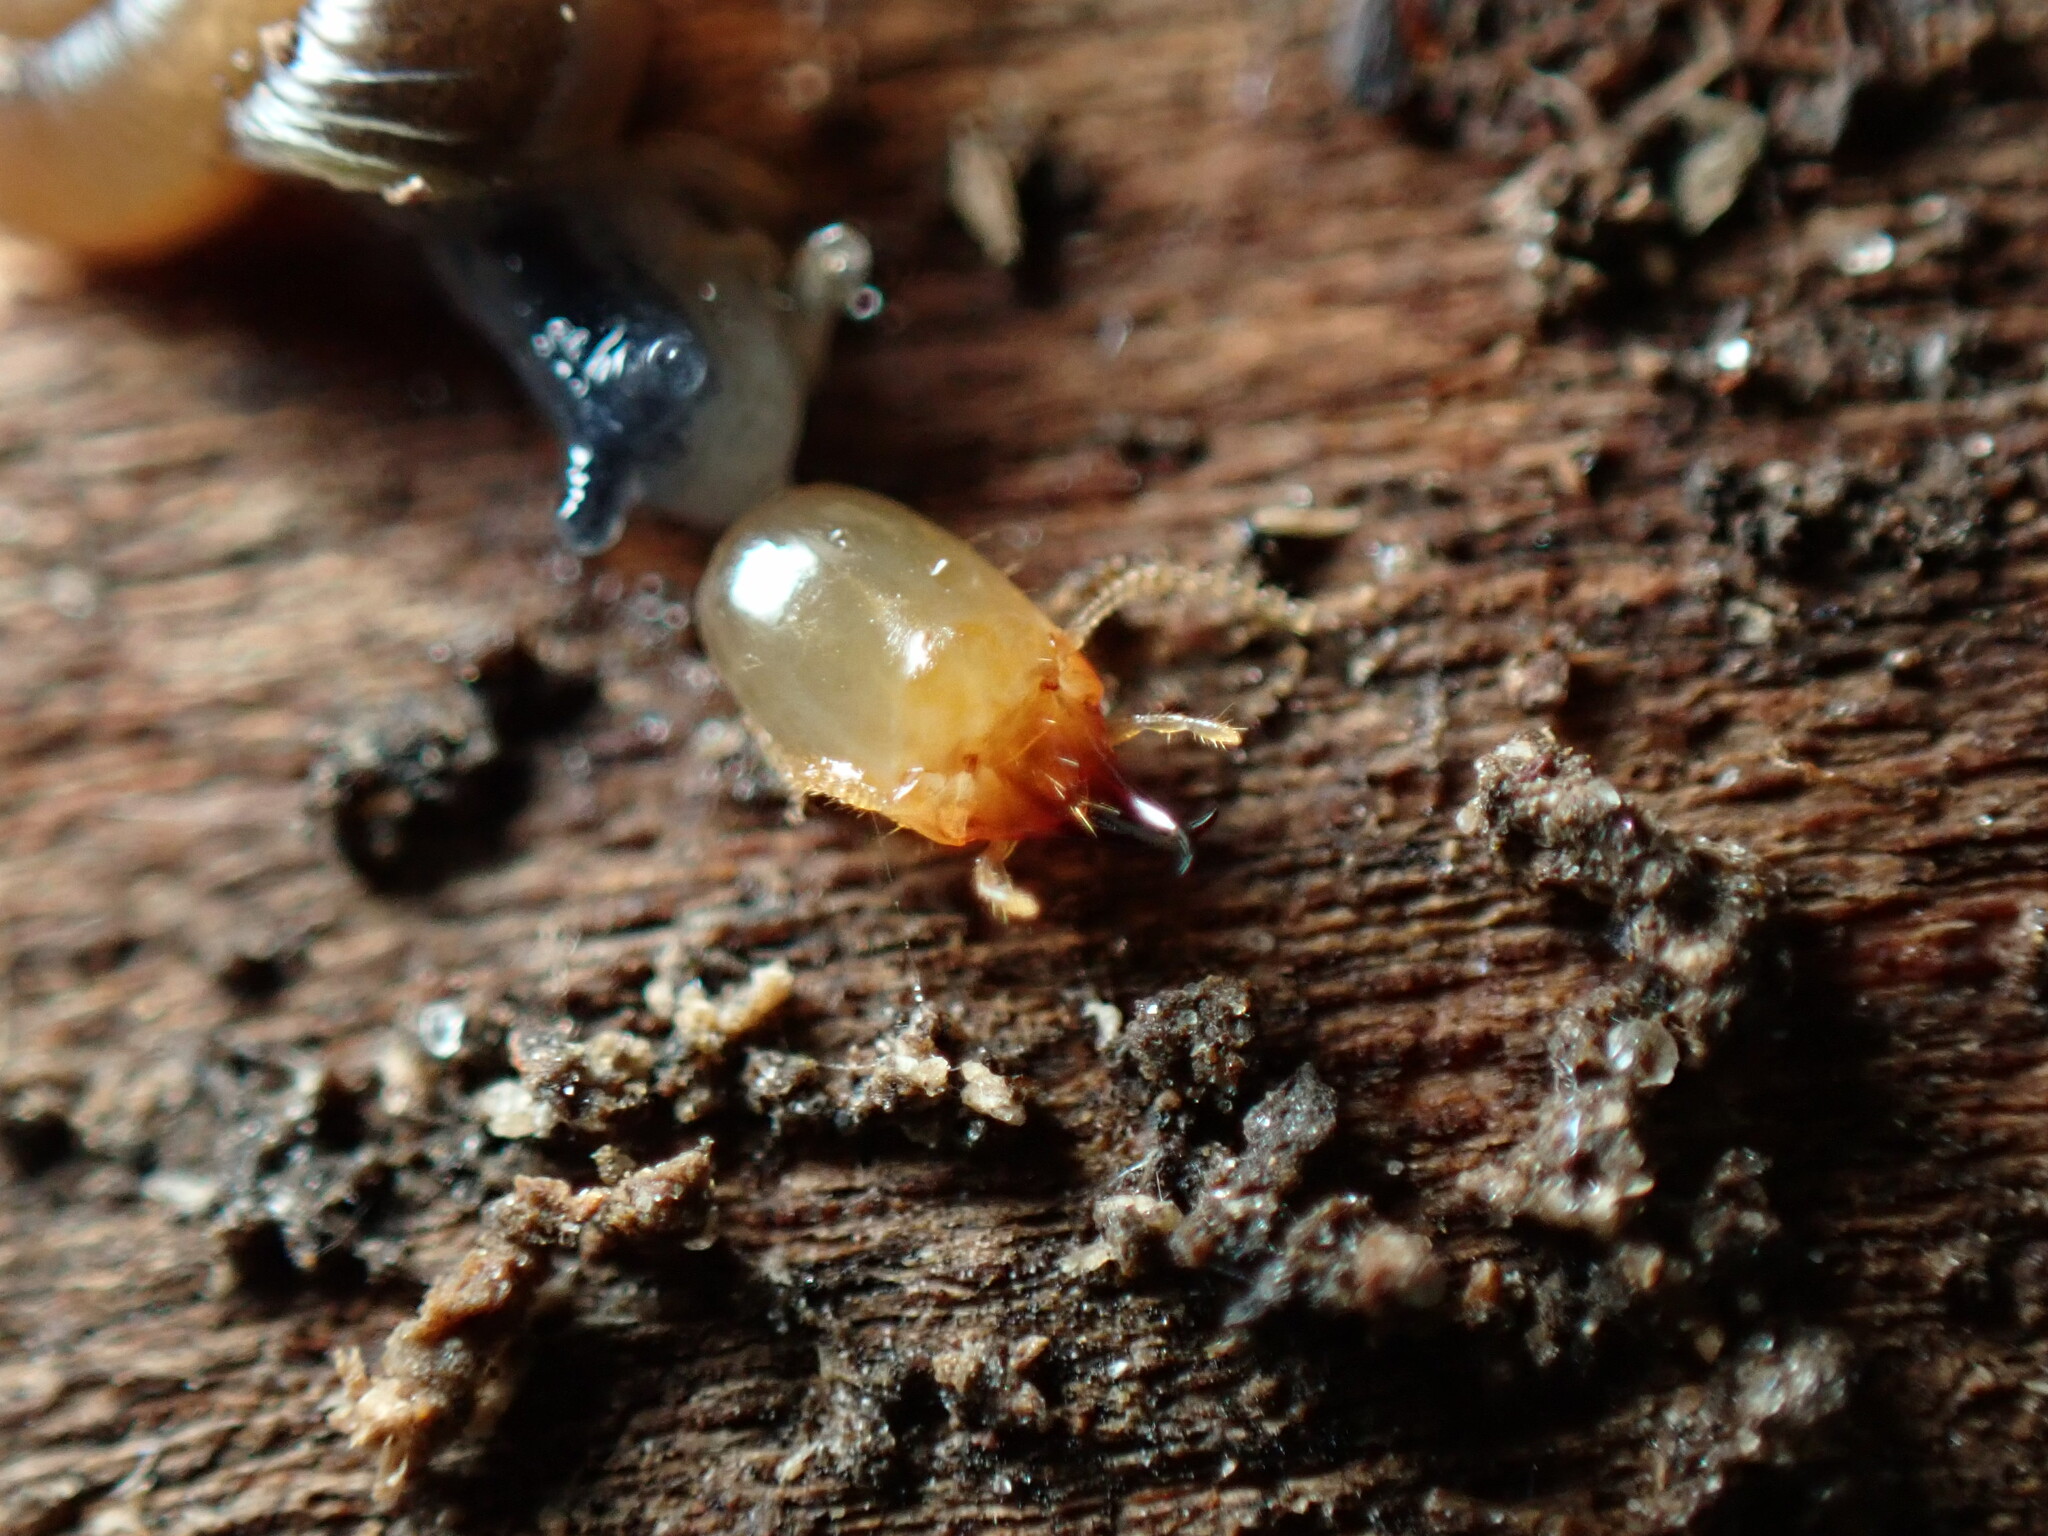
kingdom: Animalia
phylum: Arthropoda
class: Insecta
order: Blattodea
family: Rhinotermitidae
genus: Reticulitermes
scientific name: Reticulitermes flavipes
